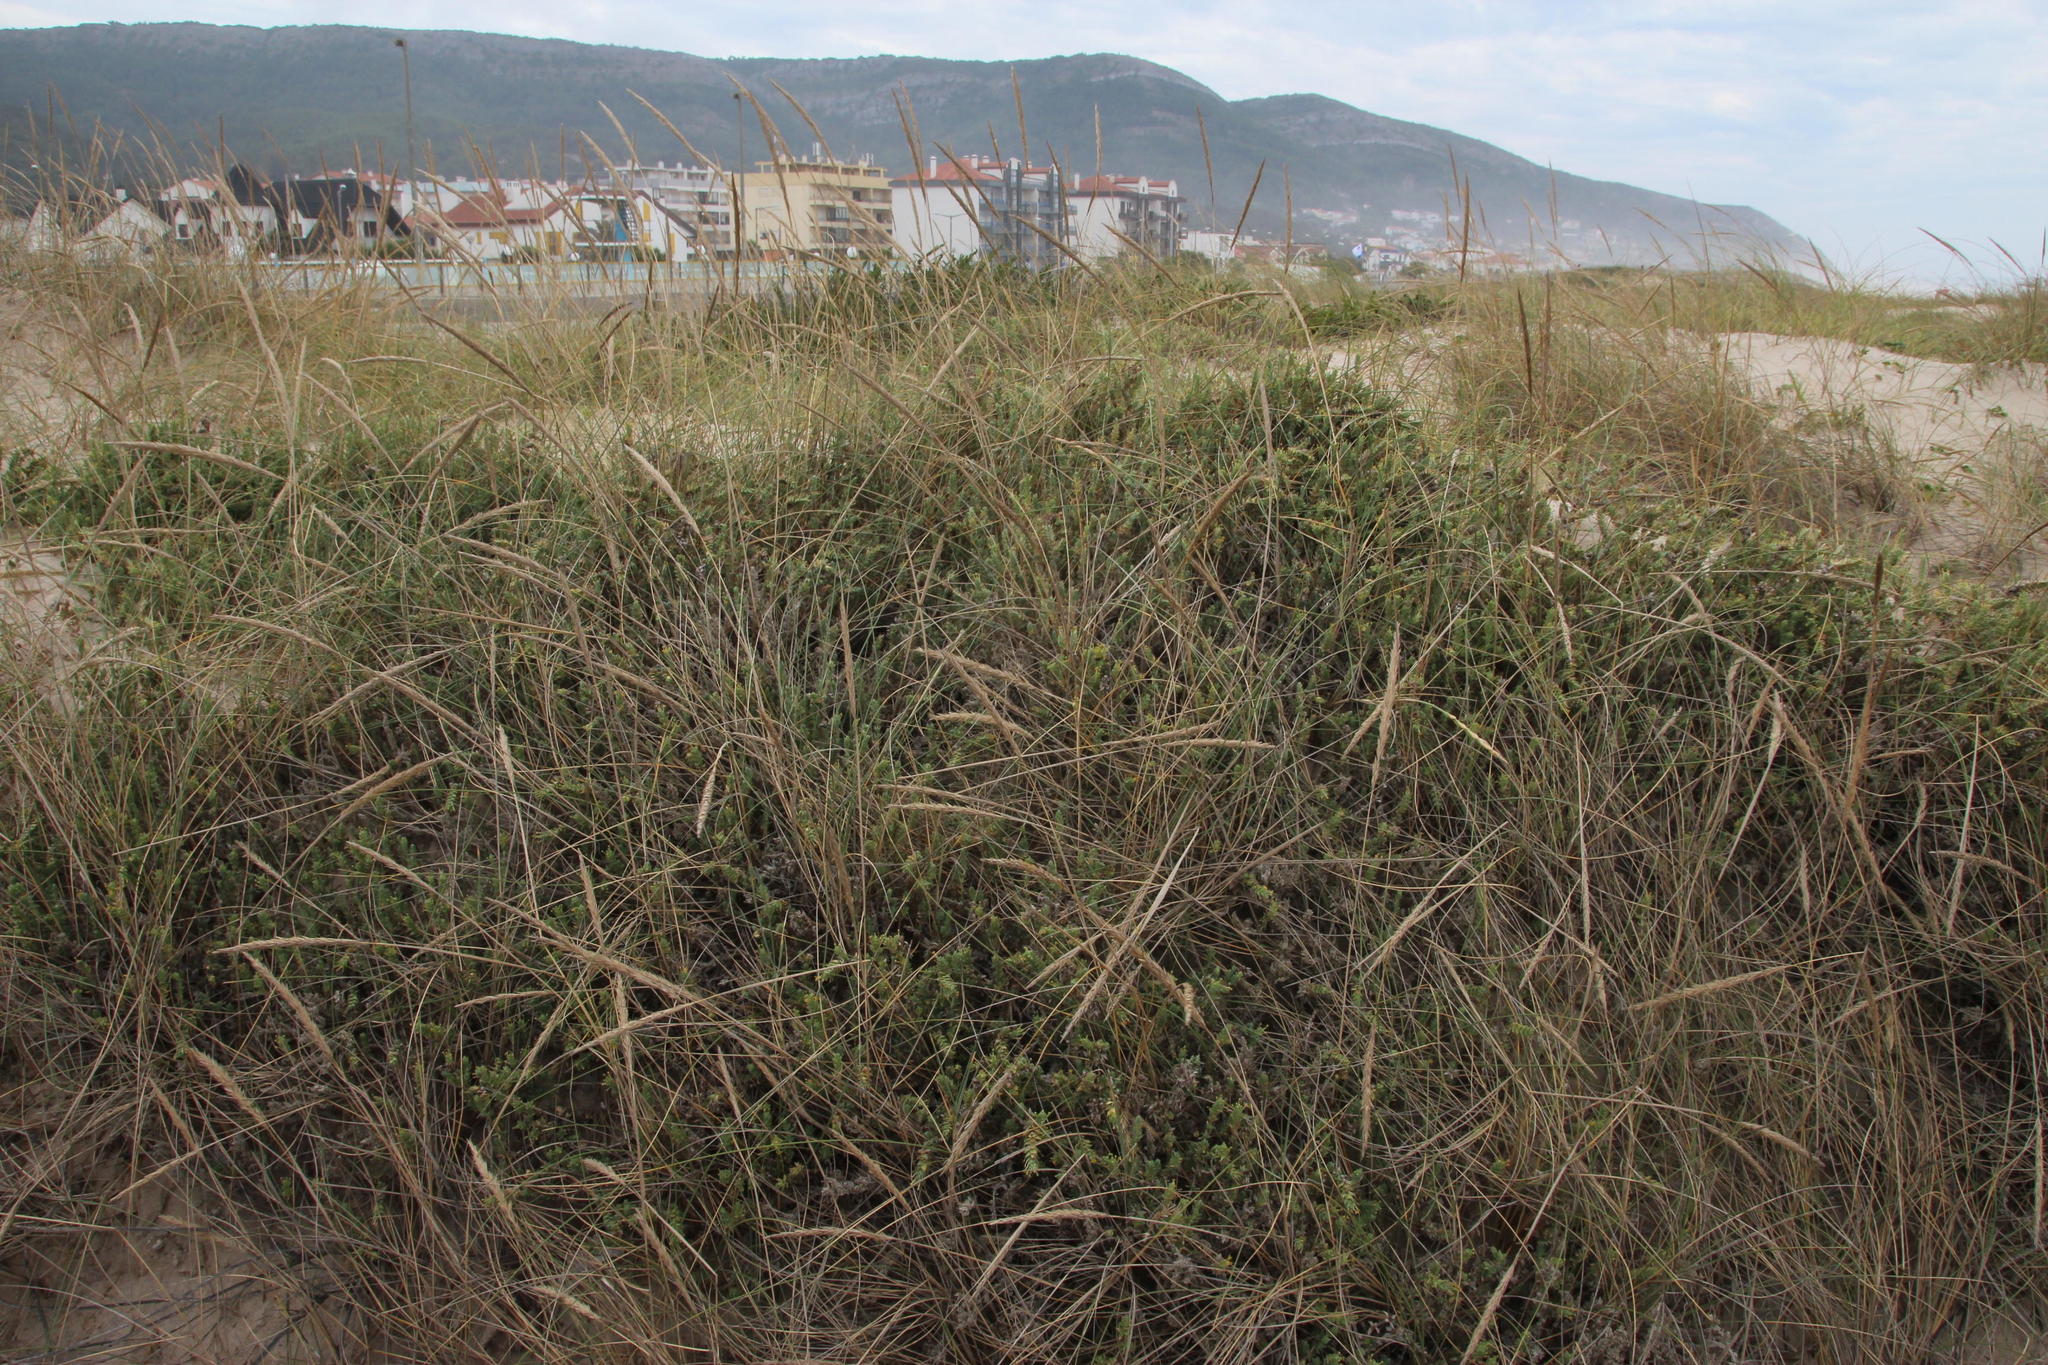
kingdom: Plantae
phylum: Tracheophyta
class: Liliopsida
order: Poales
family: Poaceae
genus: Calamagrostis
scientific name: Calamagrostis arenaria
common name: European beachgrass
